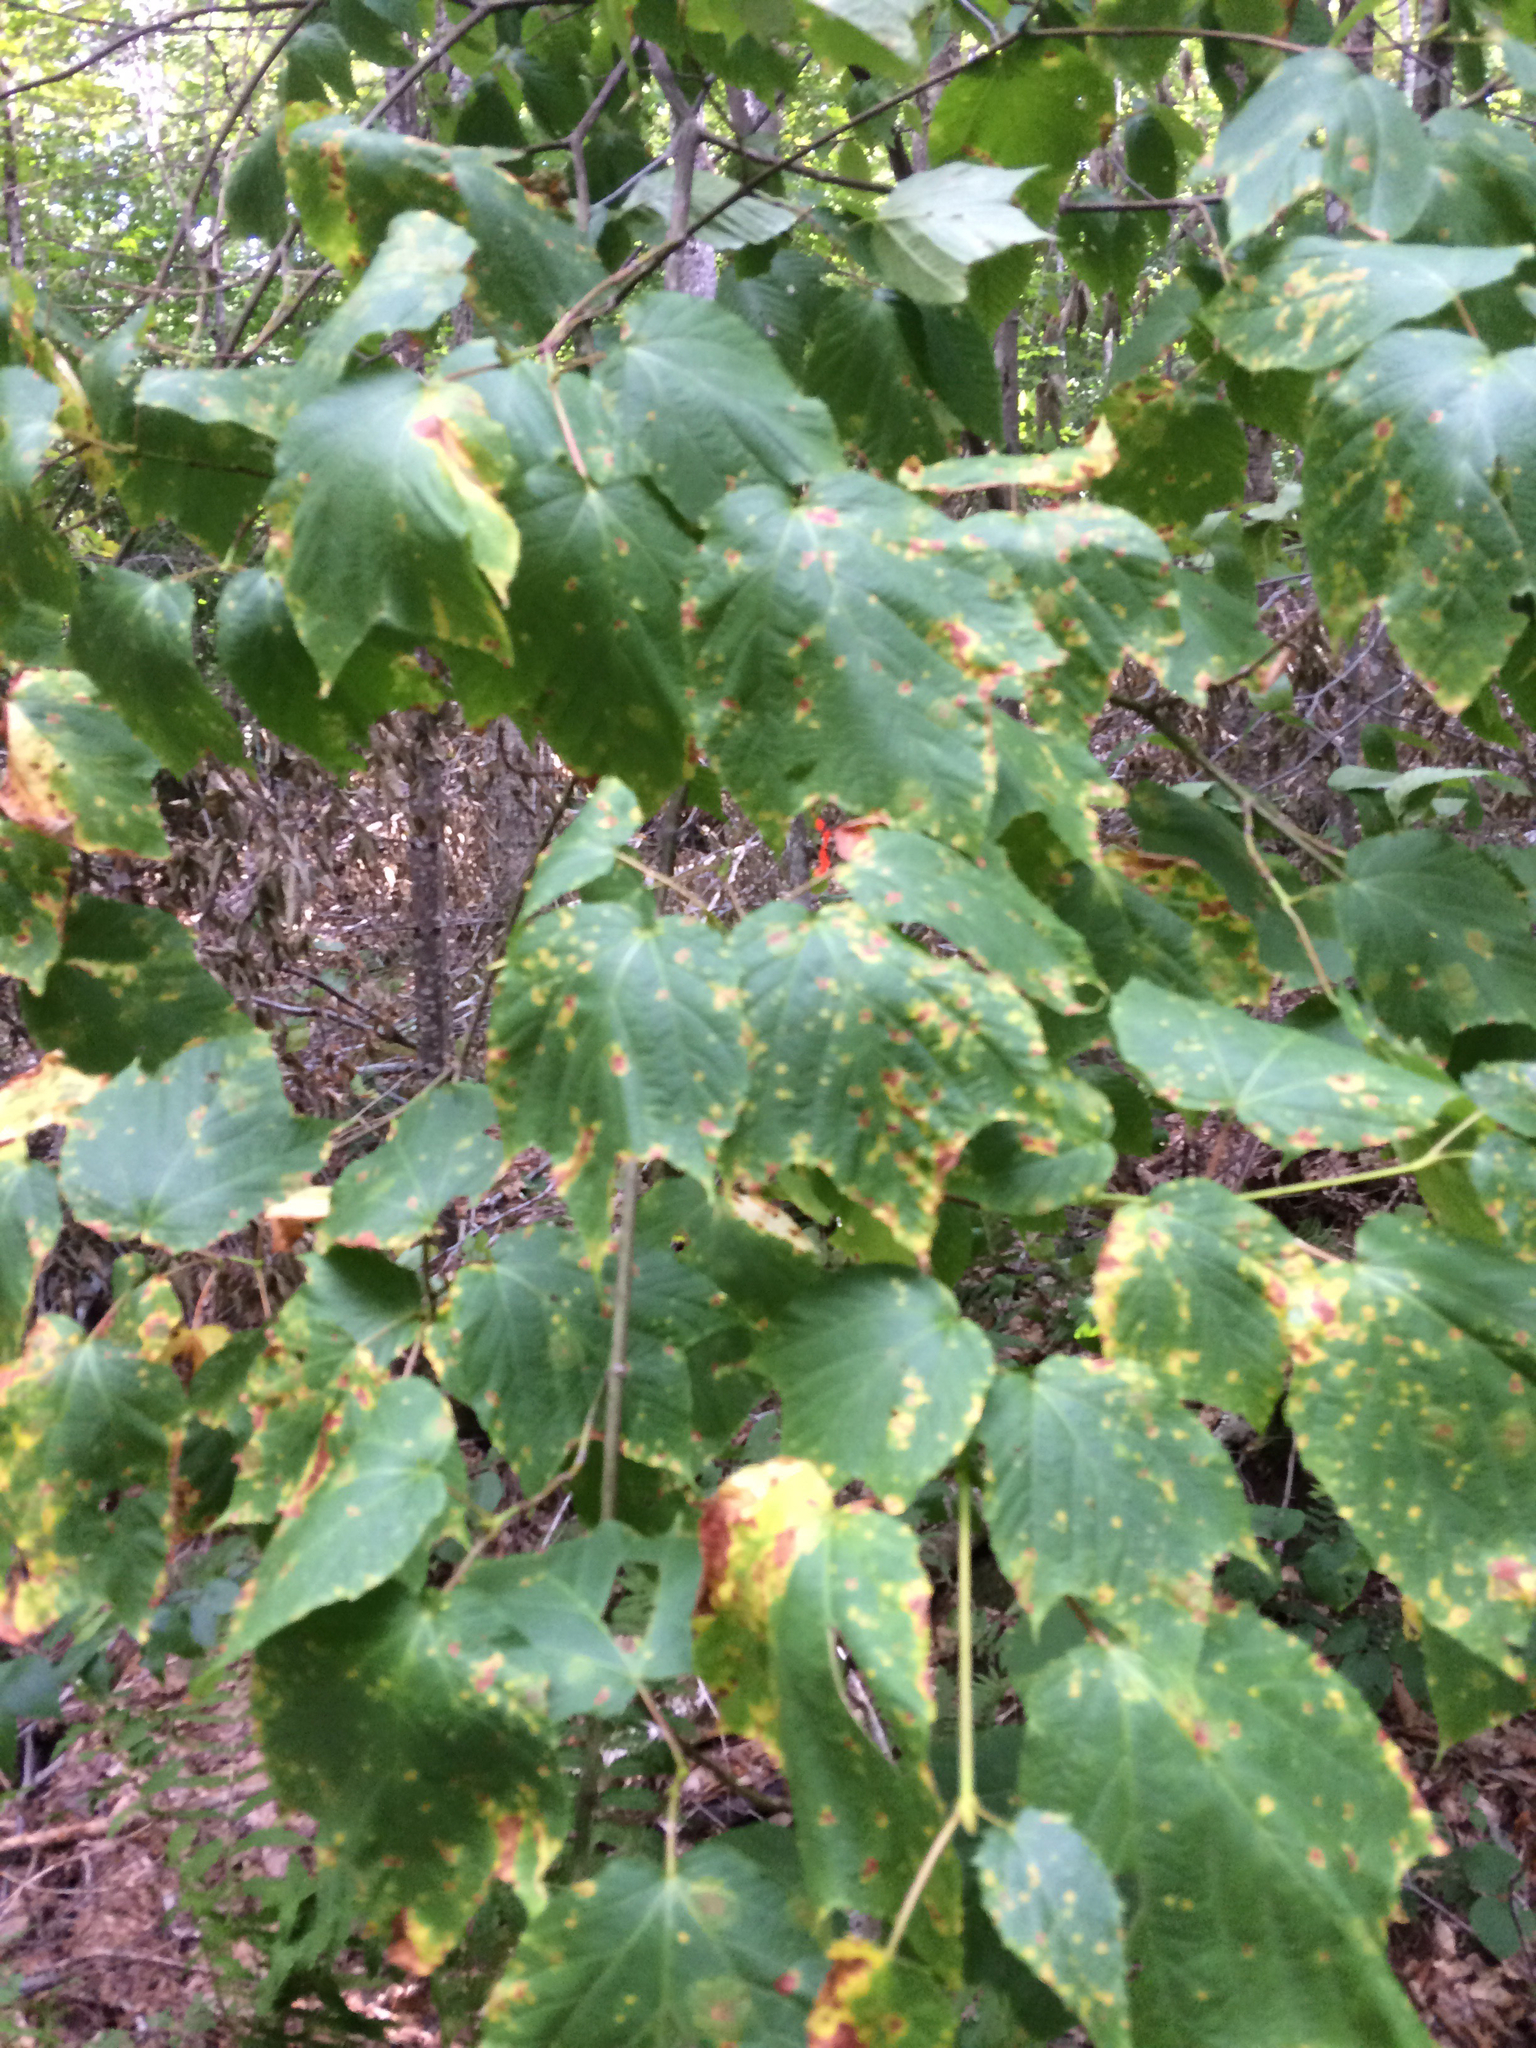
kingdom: Plantae
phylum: Tracheophyta
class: Magnoliopsida
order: Sapindales
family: Sapindaceae
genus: Acer
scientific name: Acer pensylvanicum
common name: Moosewood
